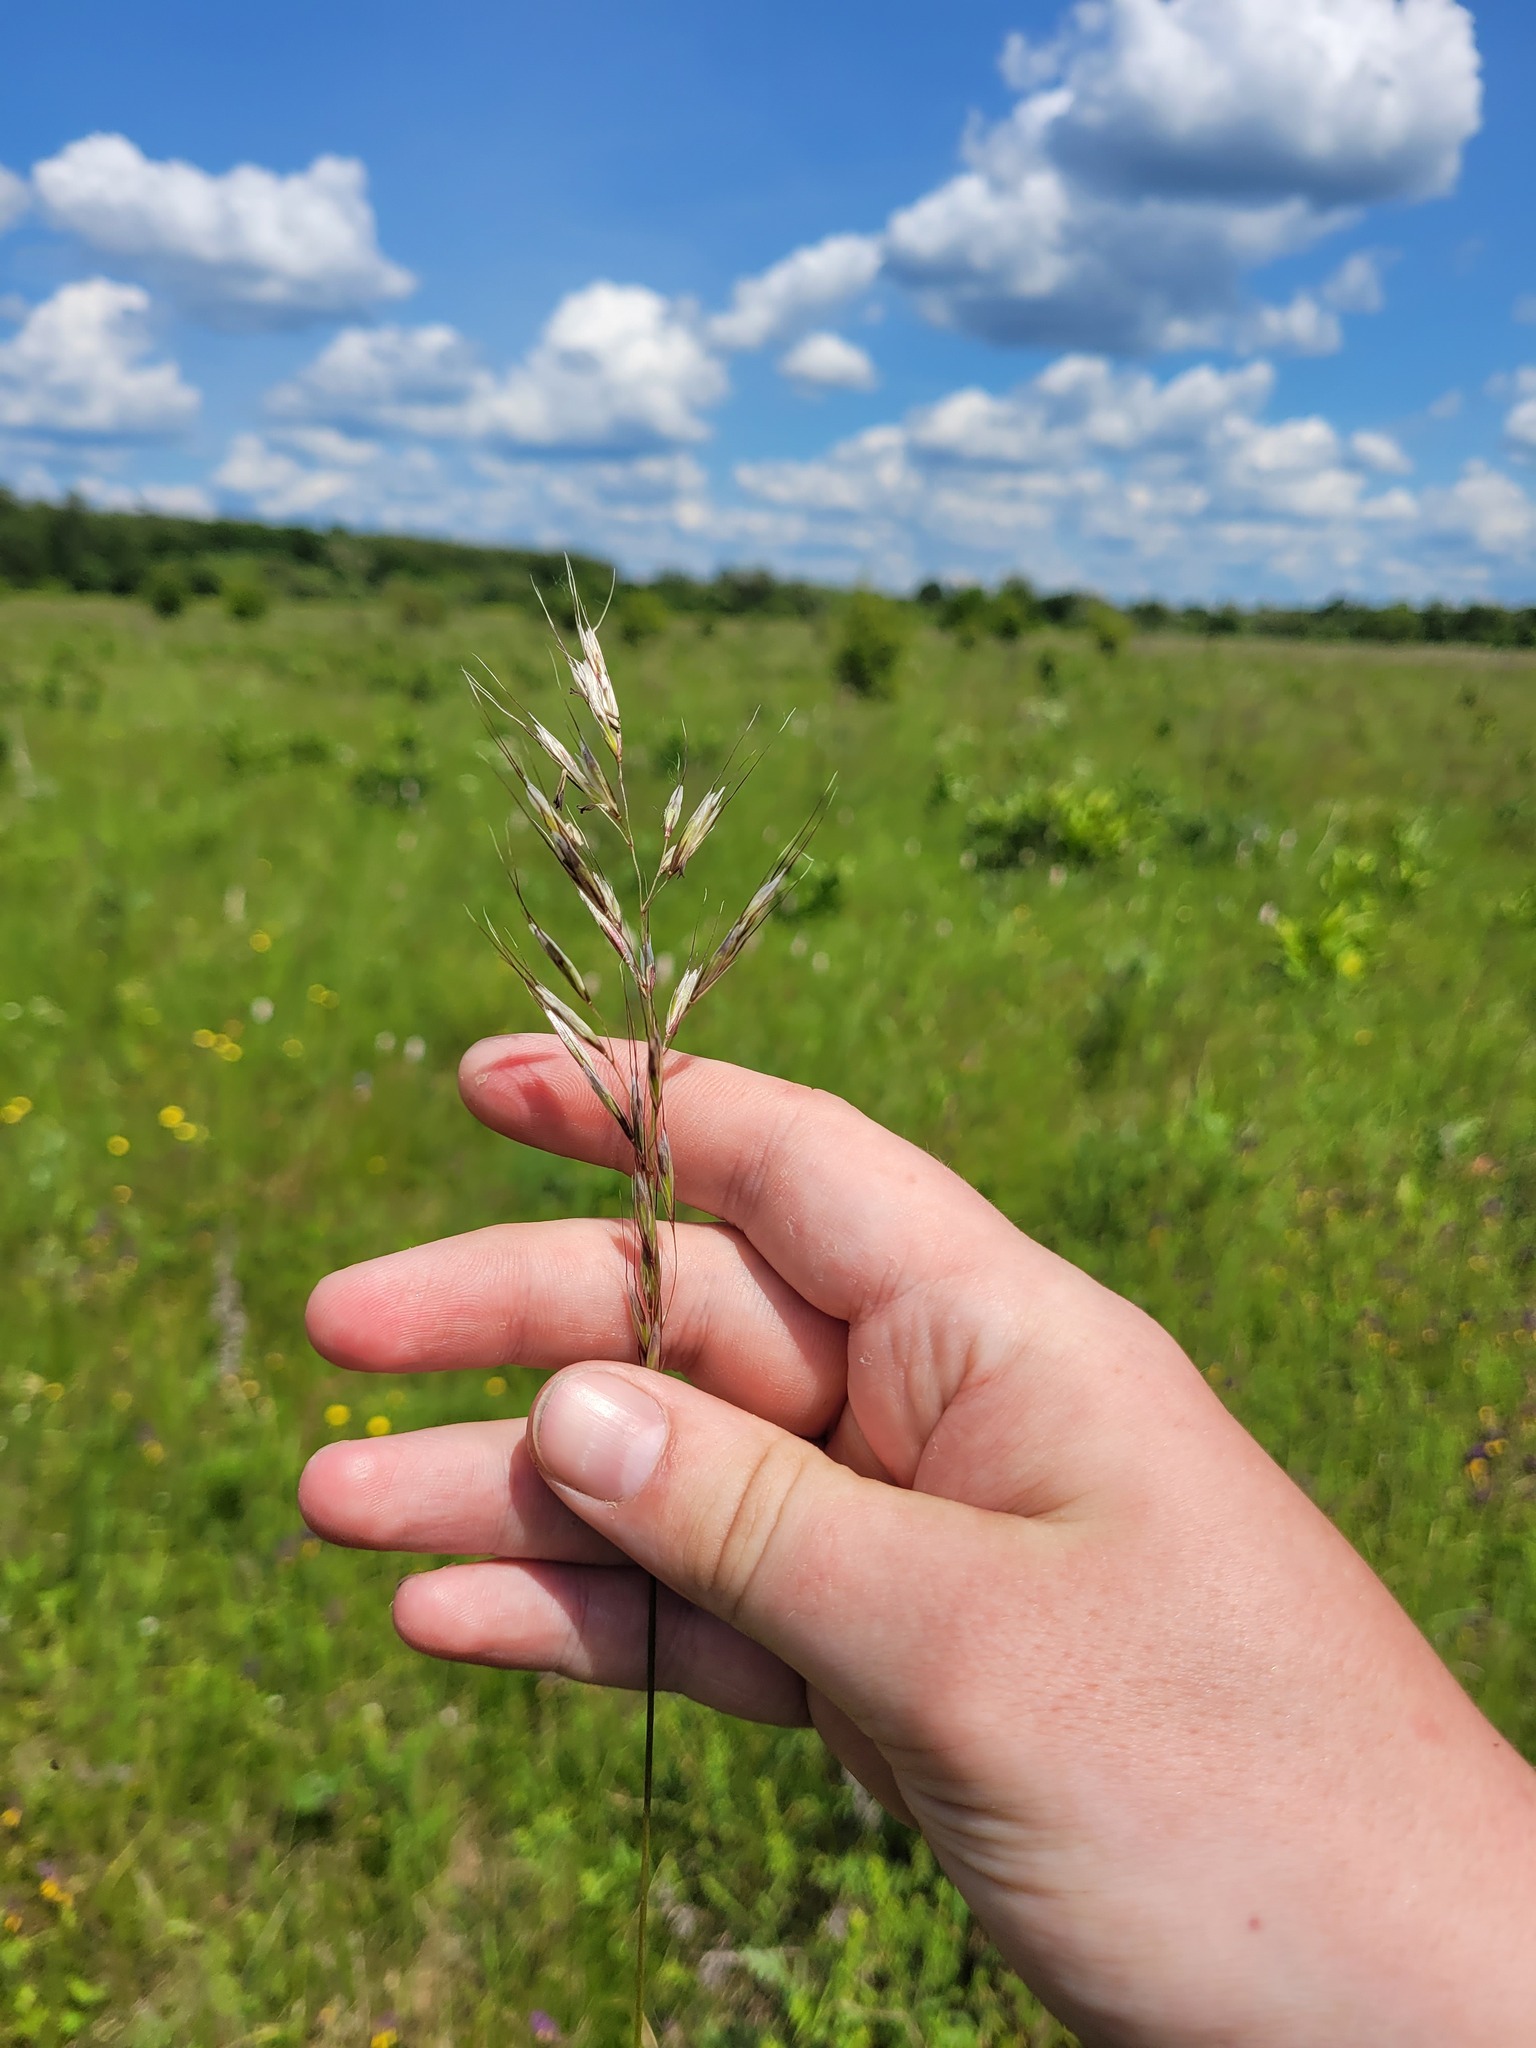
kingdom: Plantae
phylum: Tracheophyta
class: Liliopsida
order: Poales
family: Poaceae
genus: Avenula
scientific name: Avenula pubescens
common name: Downy alpine oatgrass
